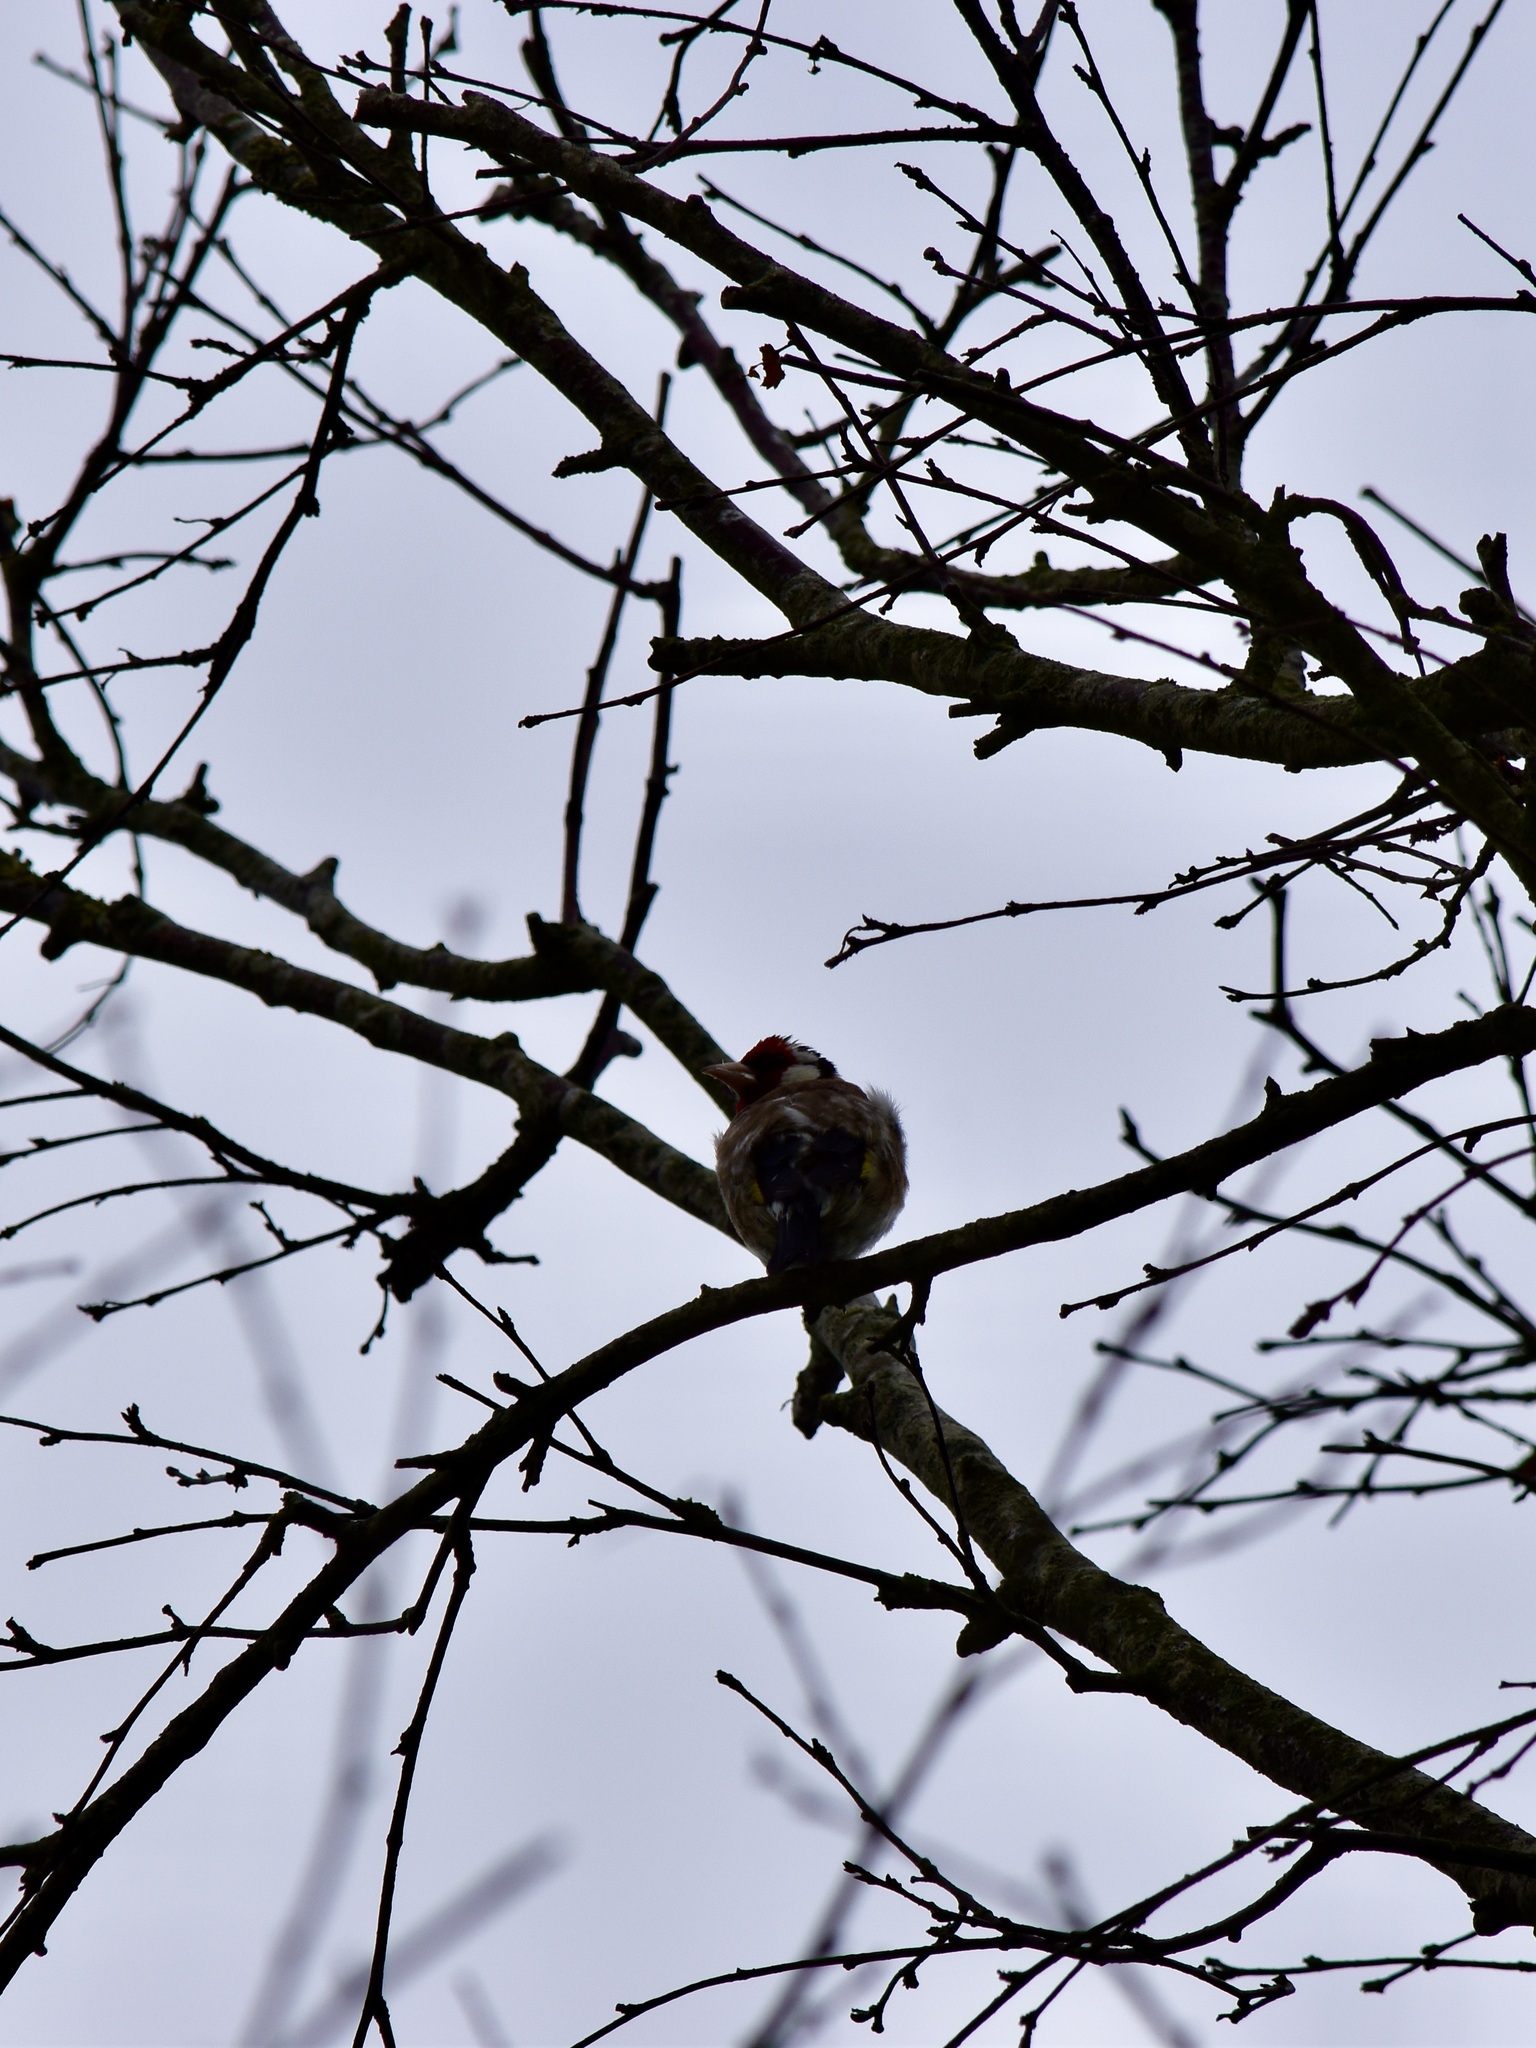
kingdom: Animalia
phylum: Chordata
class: Aves
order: Passeriformes
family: Fringillidae
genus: Carduelis
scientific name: Carduelis carduelis
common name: European goldfinch
